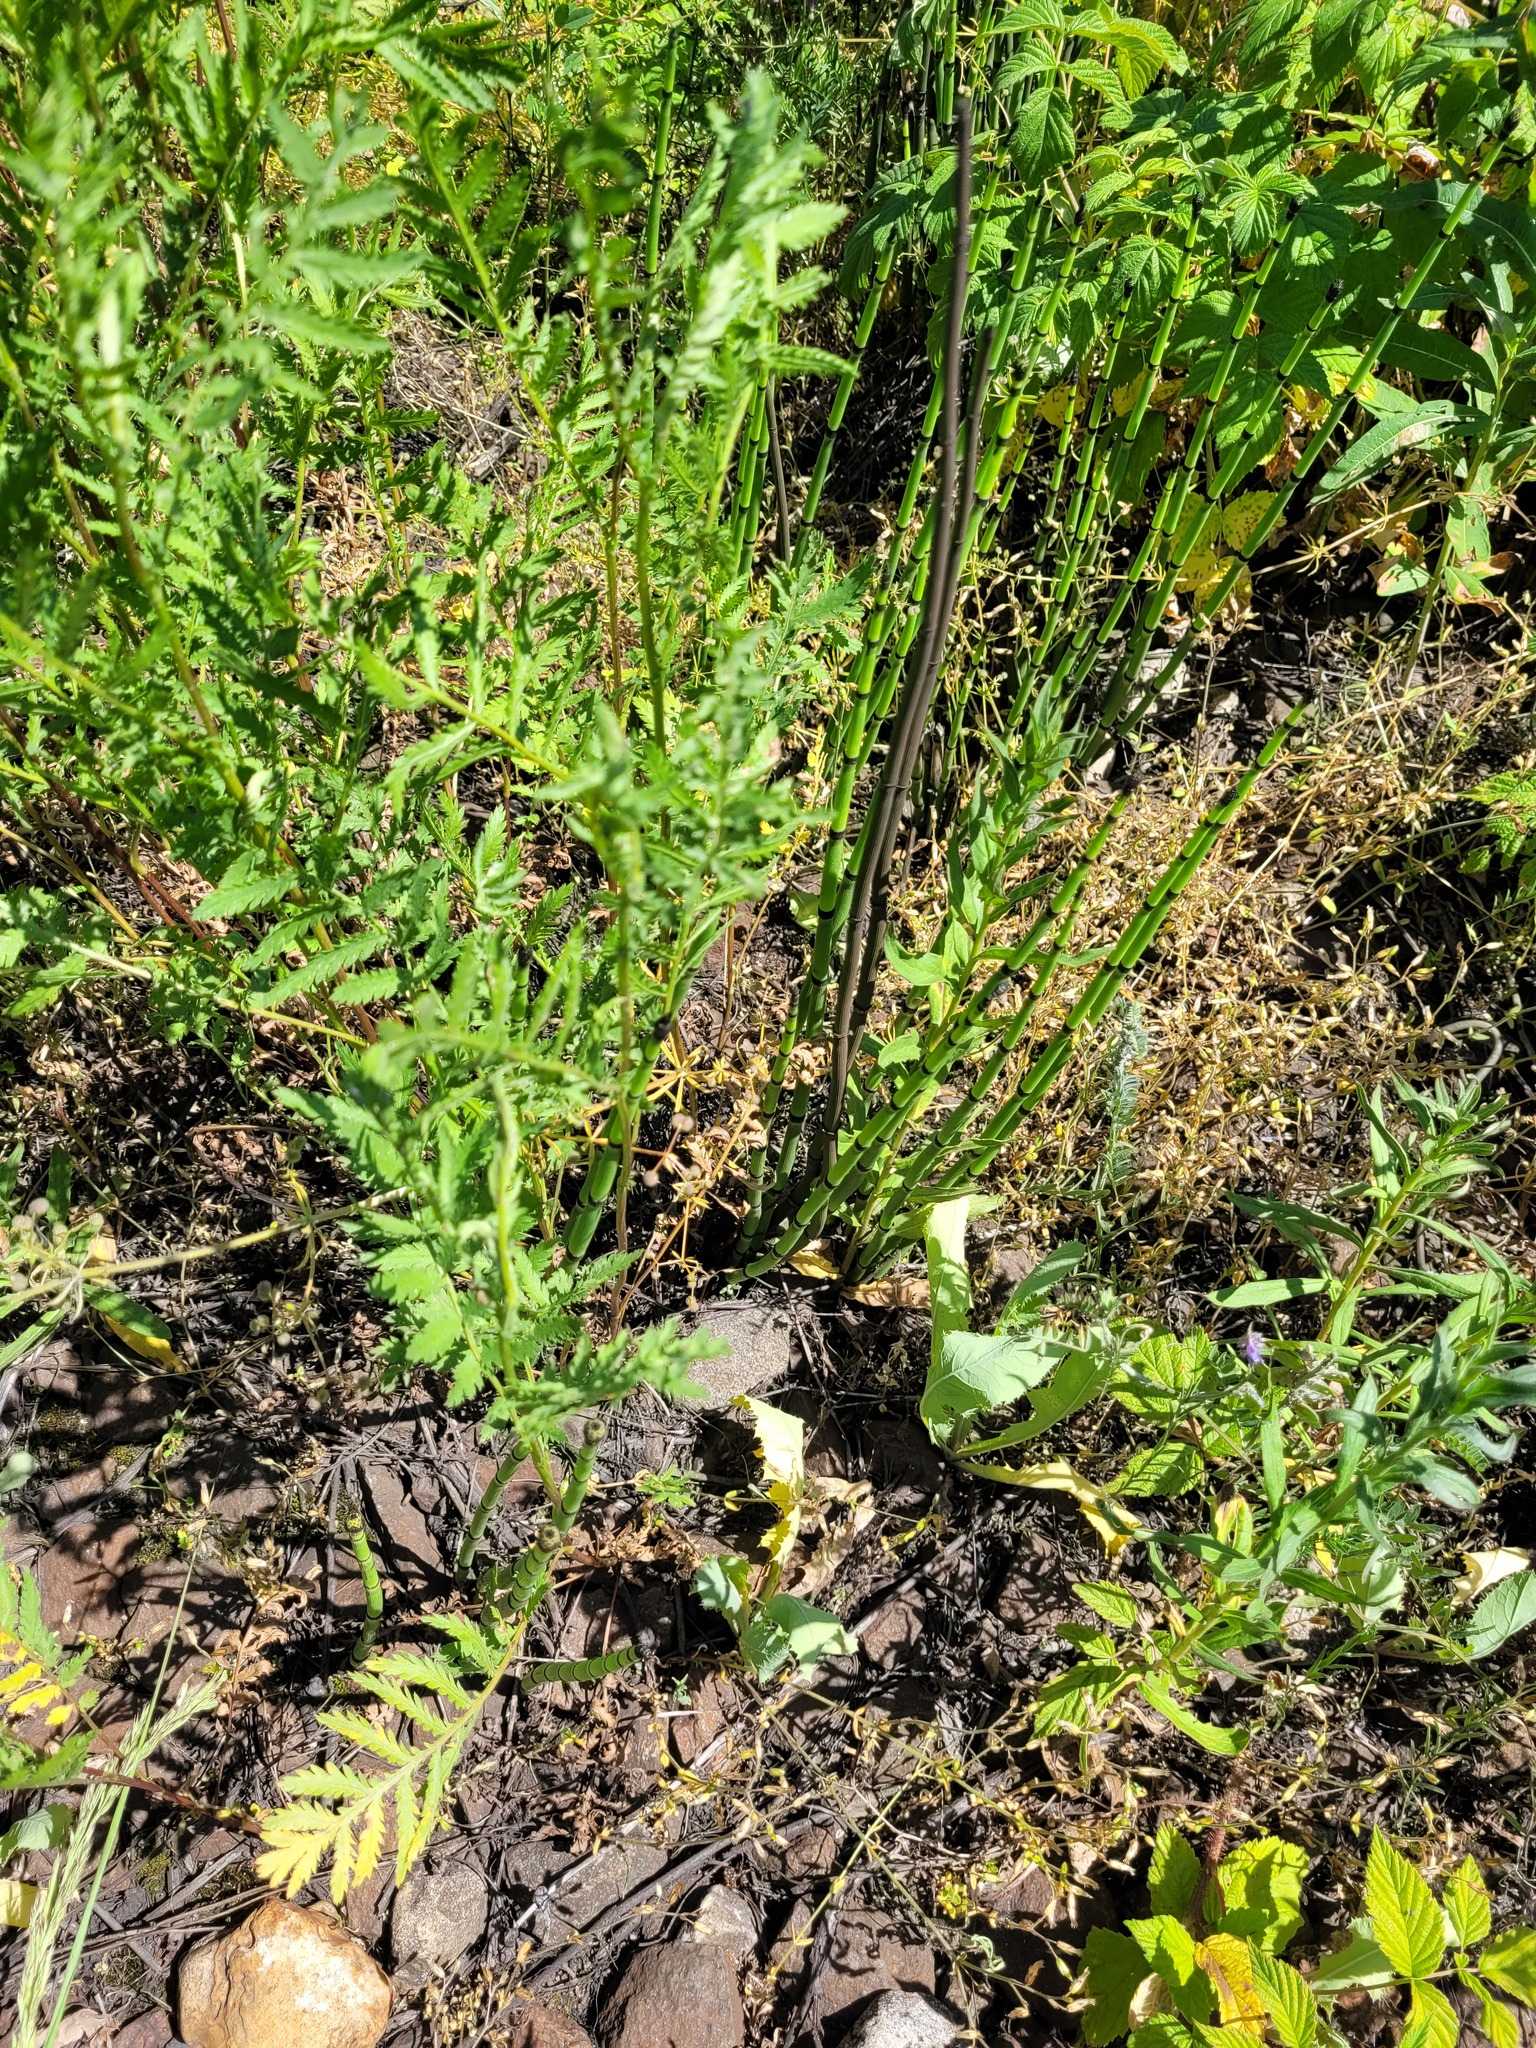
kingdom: Plantae
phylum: Tracheophyta
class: Polypodiopsida
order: Equisetales
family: Equisetaceae
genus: Equisetum
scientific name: Equisetum hyemale
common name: Rough horsetail
